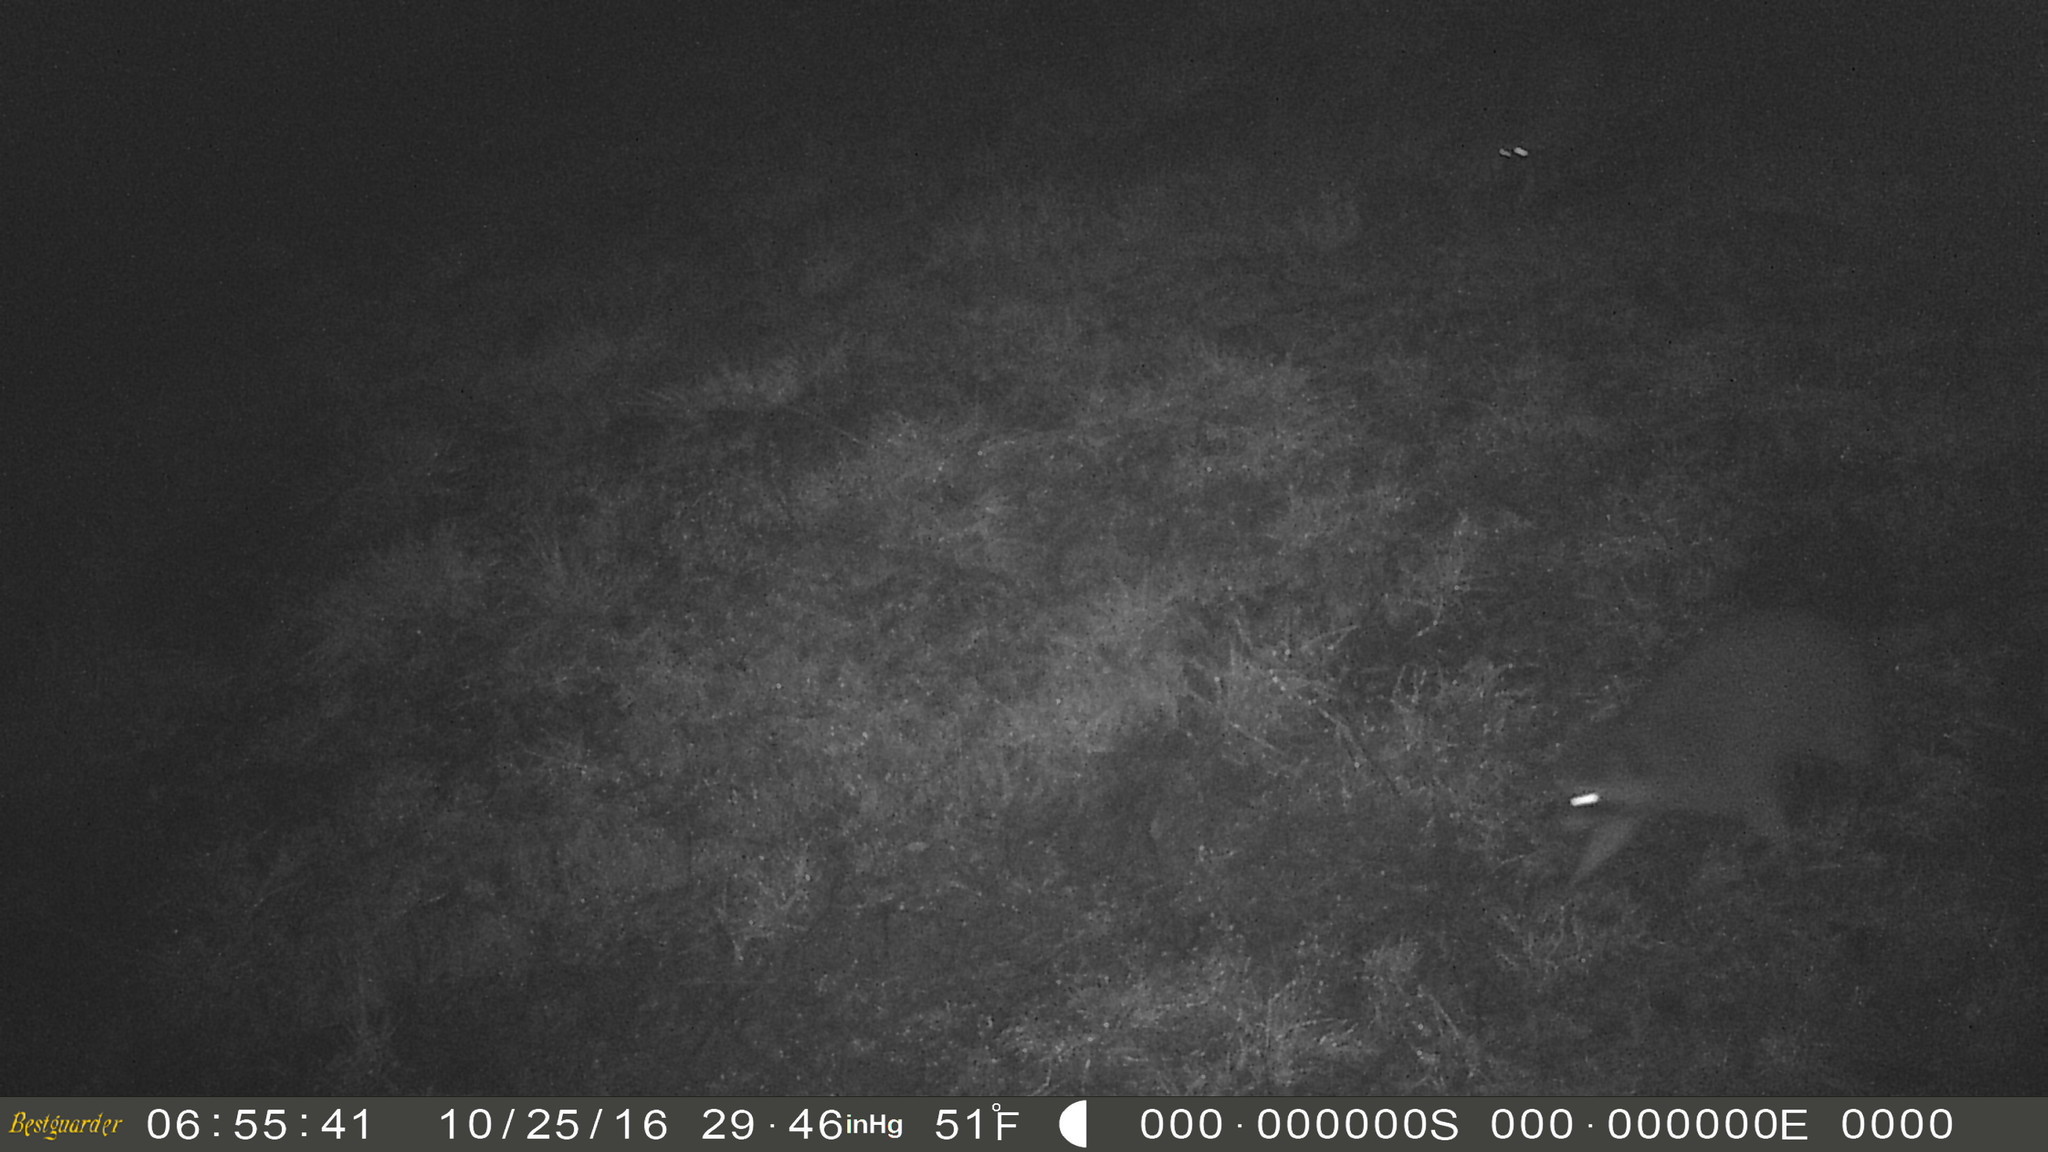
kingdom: Animalia
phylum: Chordata
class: Mammalia
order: Carnivora
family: Procyonidae
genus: Procyon
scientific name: Procyon lotor
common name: Raccoon
